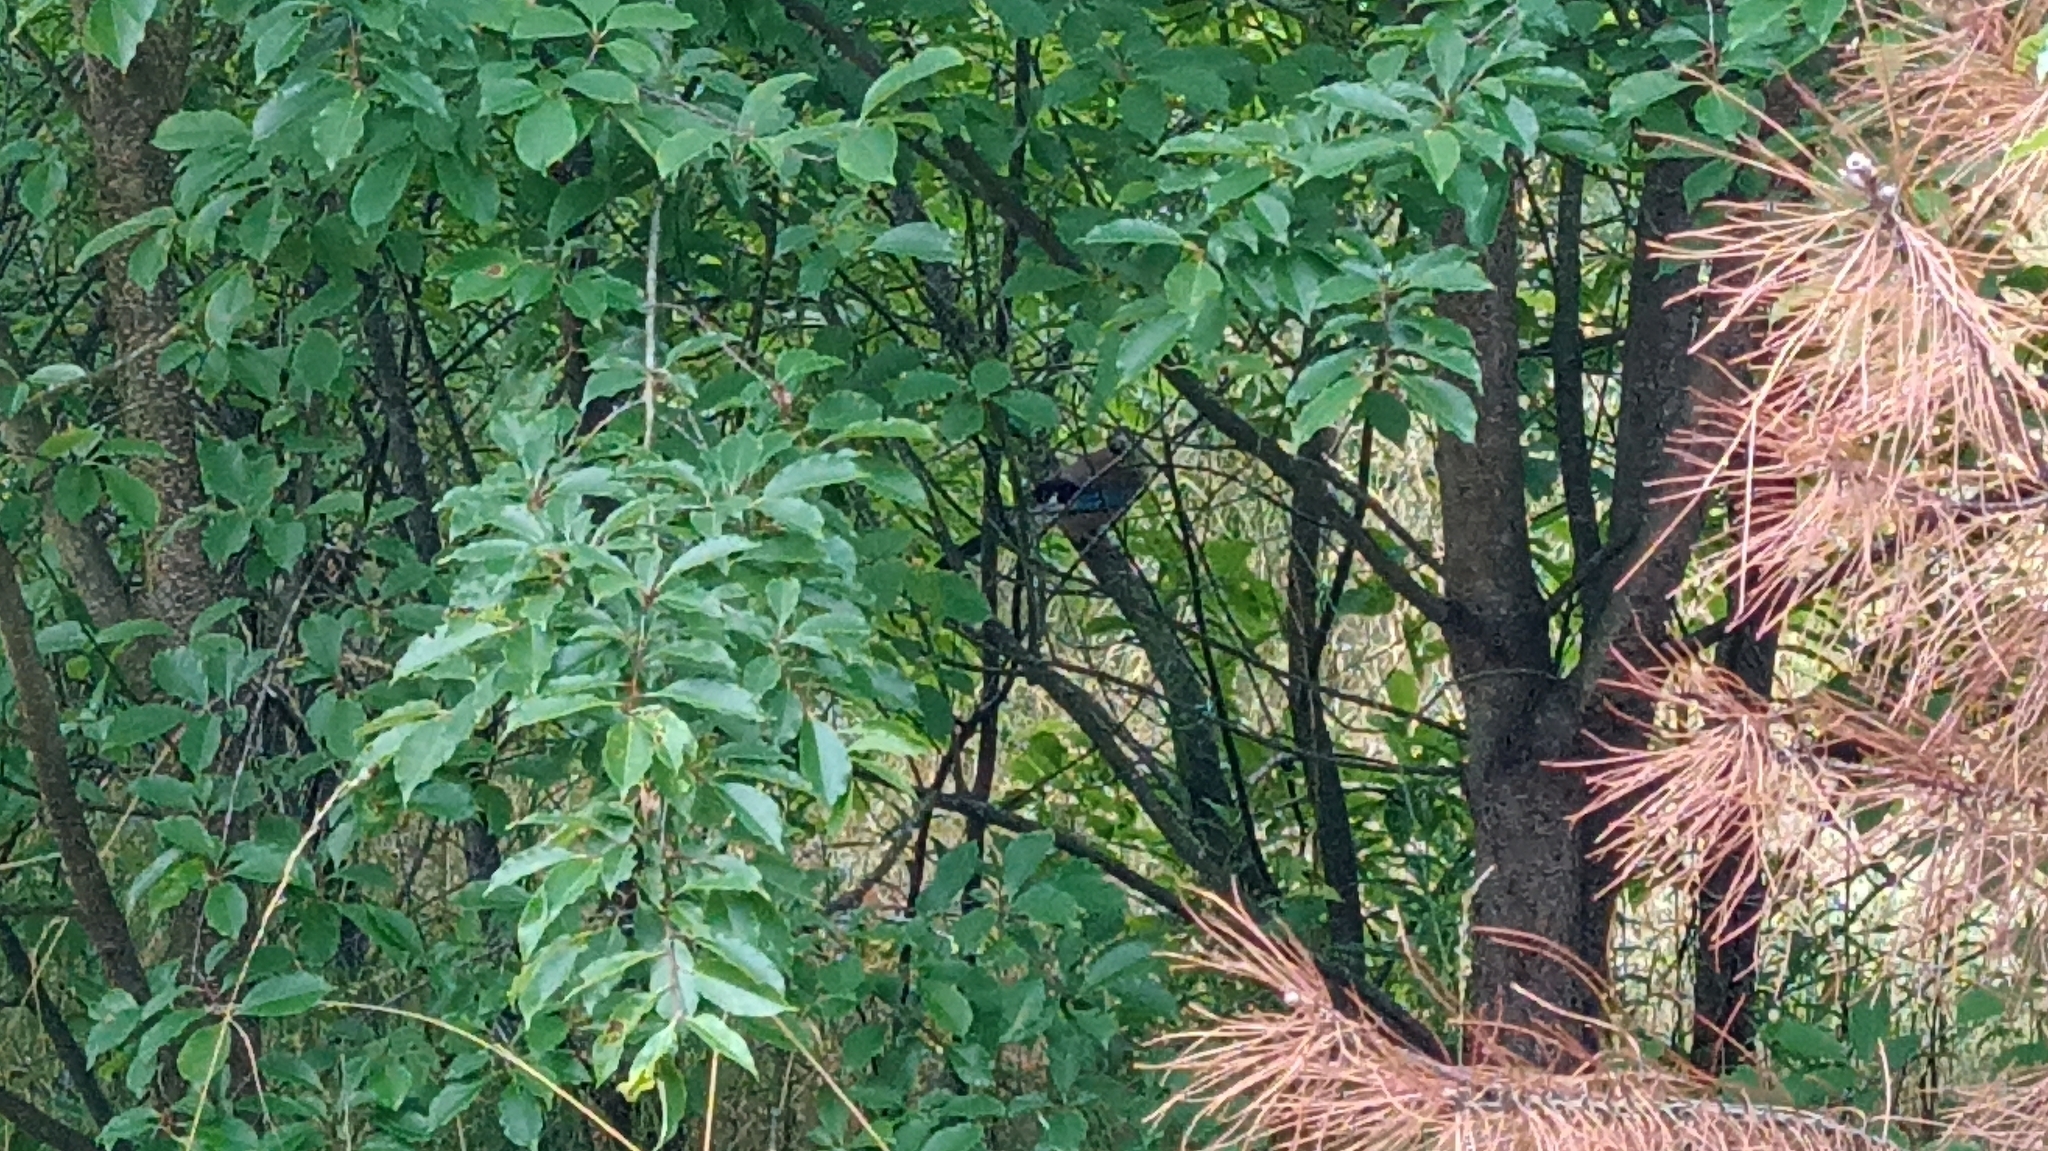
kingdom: Animalia
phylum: Chordata
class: Aves
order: Passeriformes
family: Corvidae
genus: Garrulus
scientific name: Garrulus glandarius
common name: Eurasian jay
